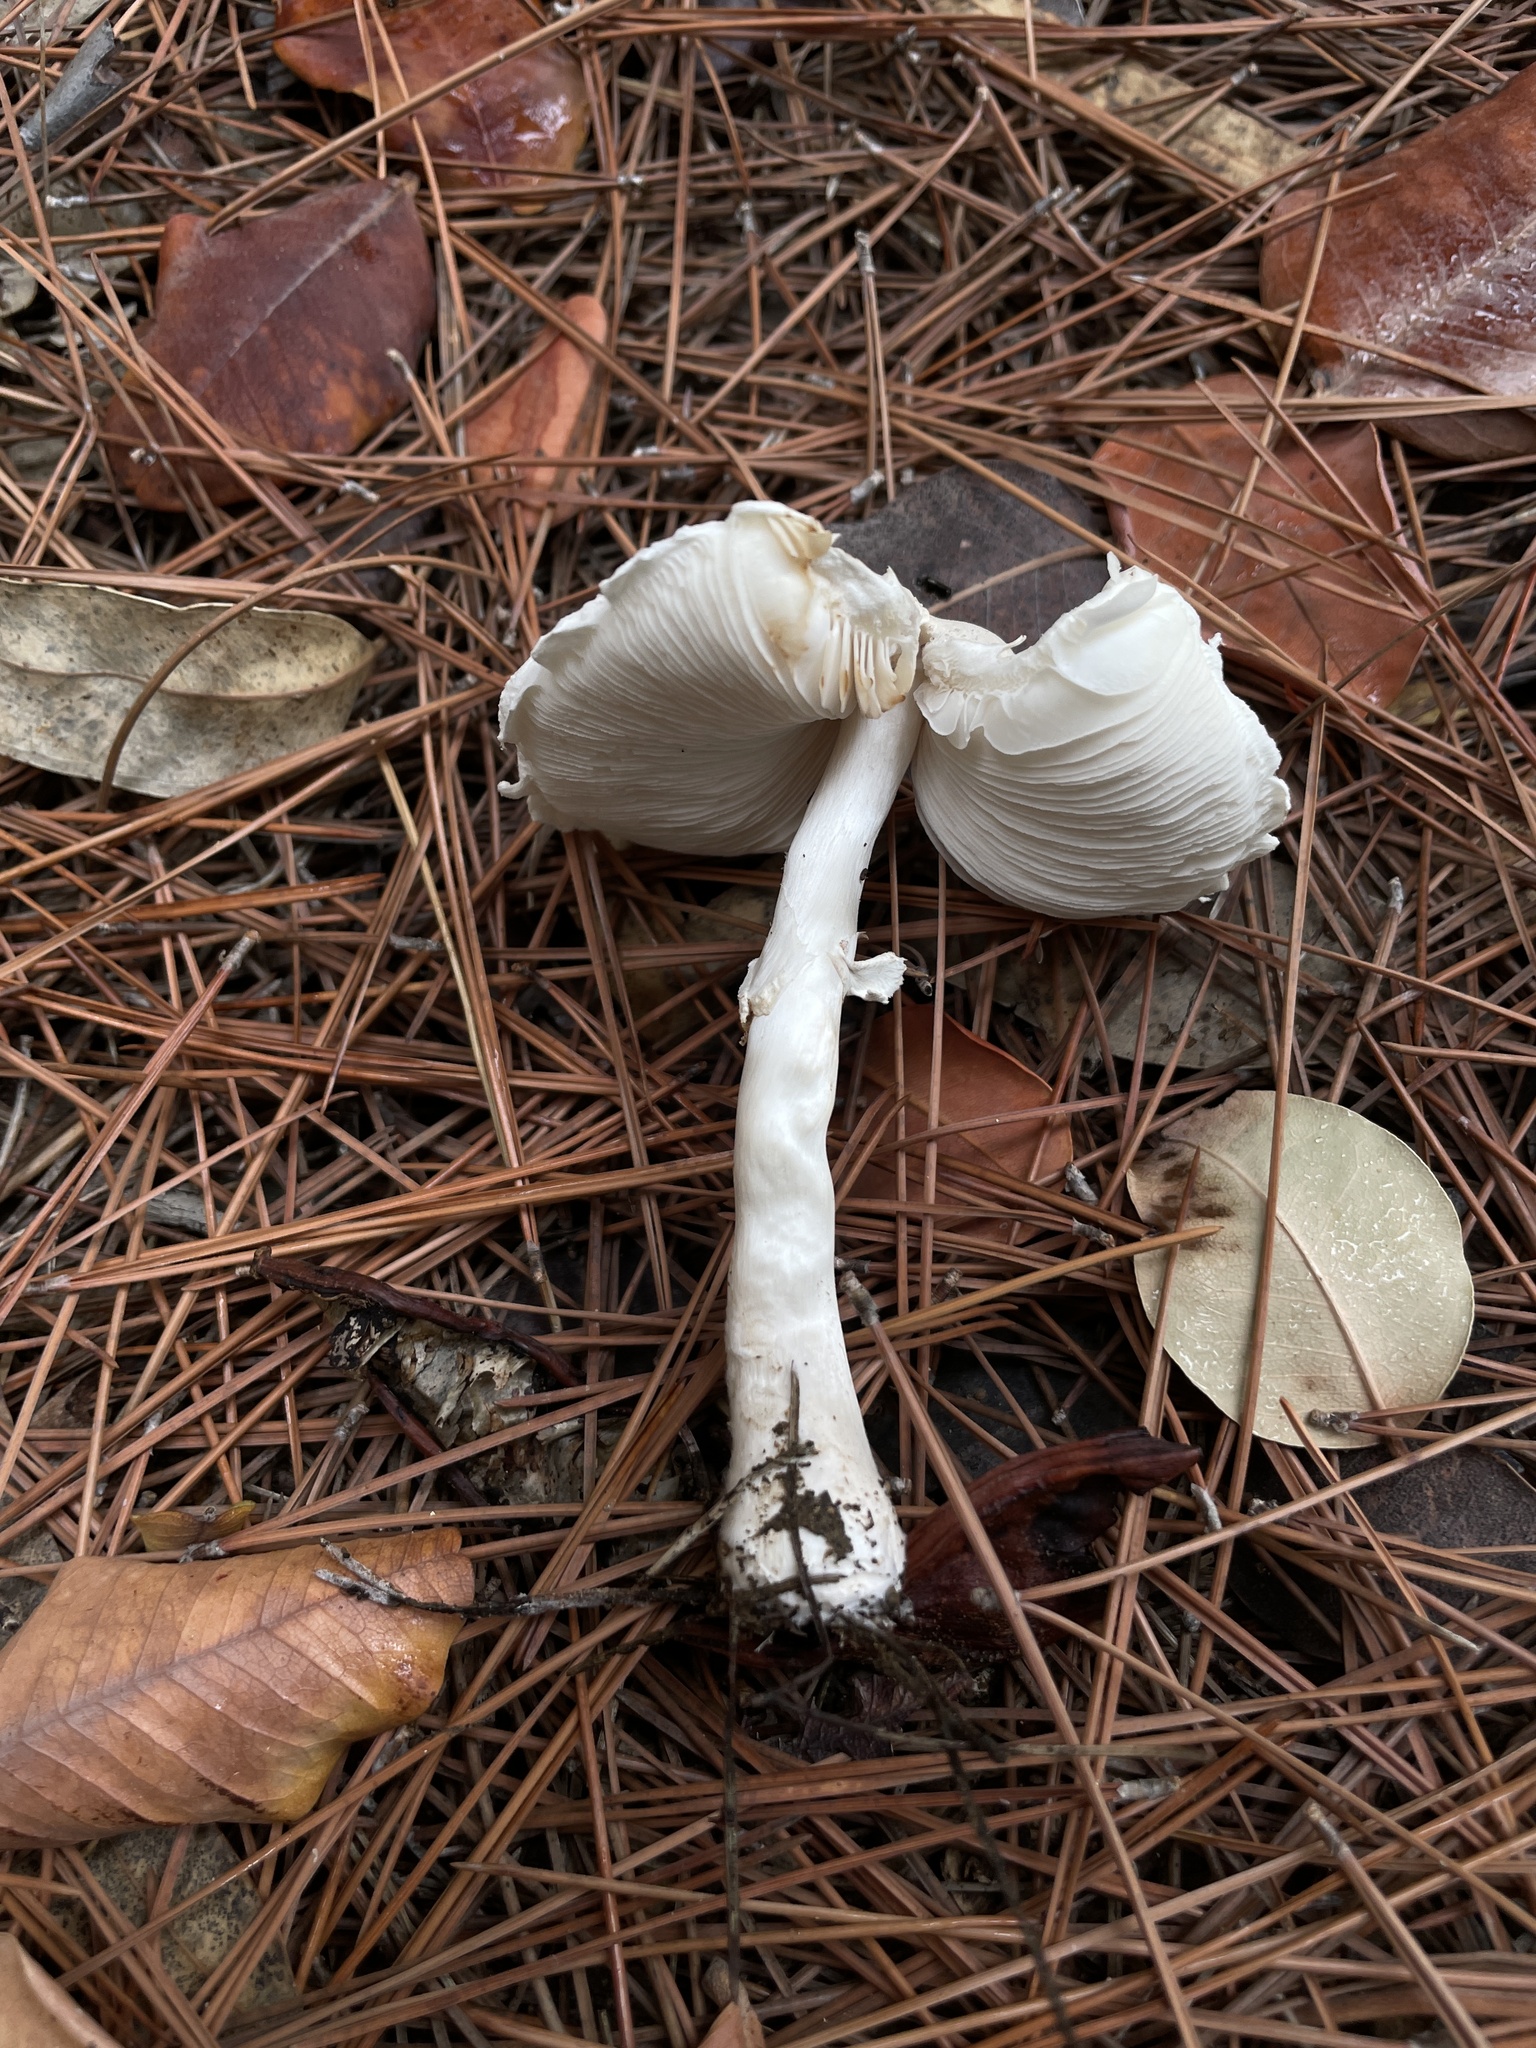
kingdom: Fungi
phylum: Basidiomycota
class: Agaricomycetes
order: Agaricales
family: Agaricaceae
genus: Leucoagaricus
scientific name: Leucoagaricus leucothites
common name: White dapperling
